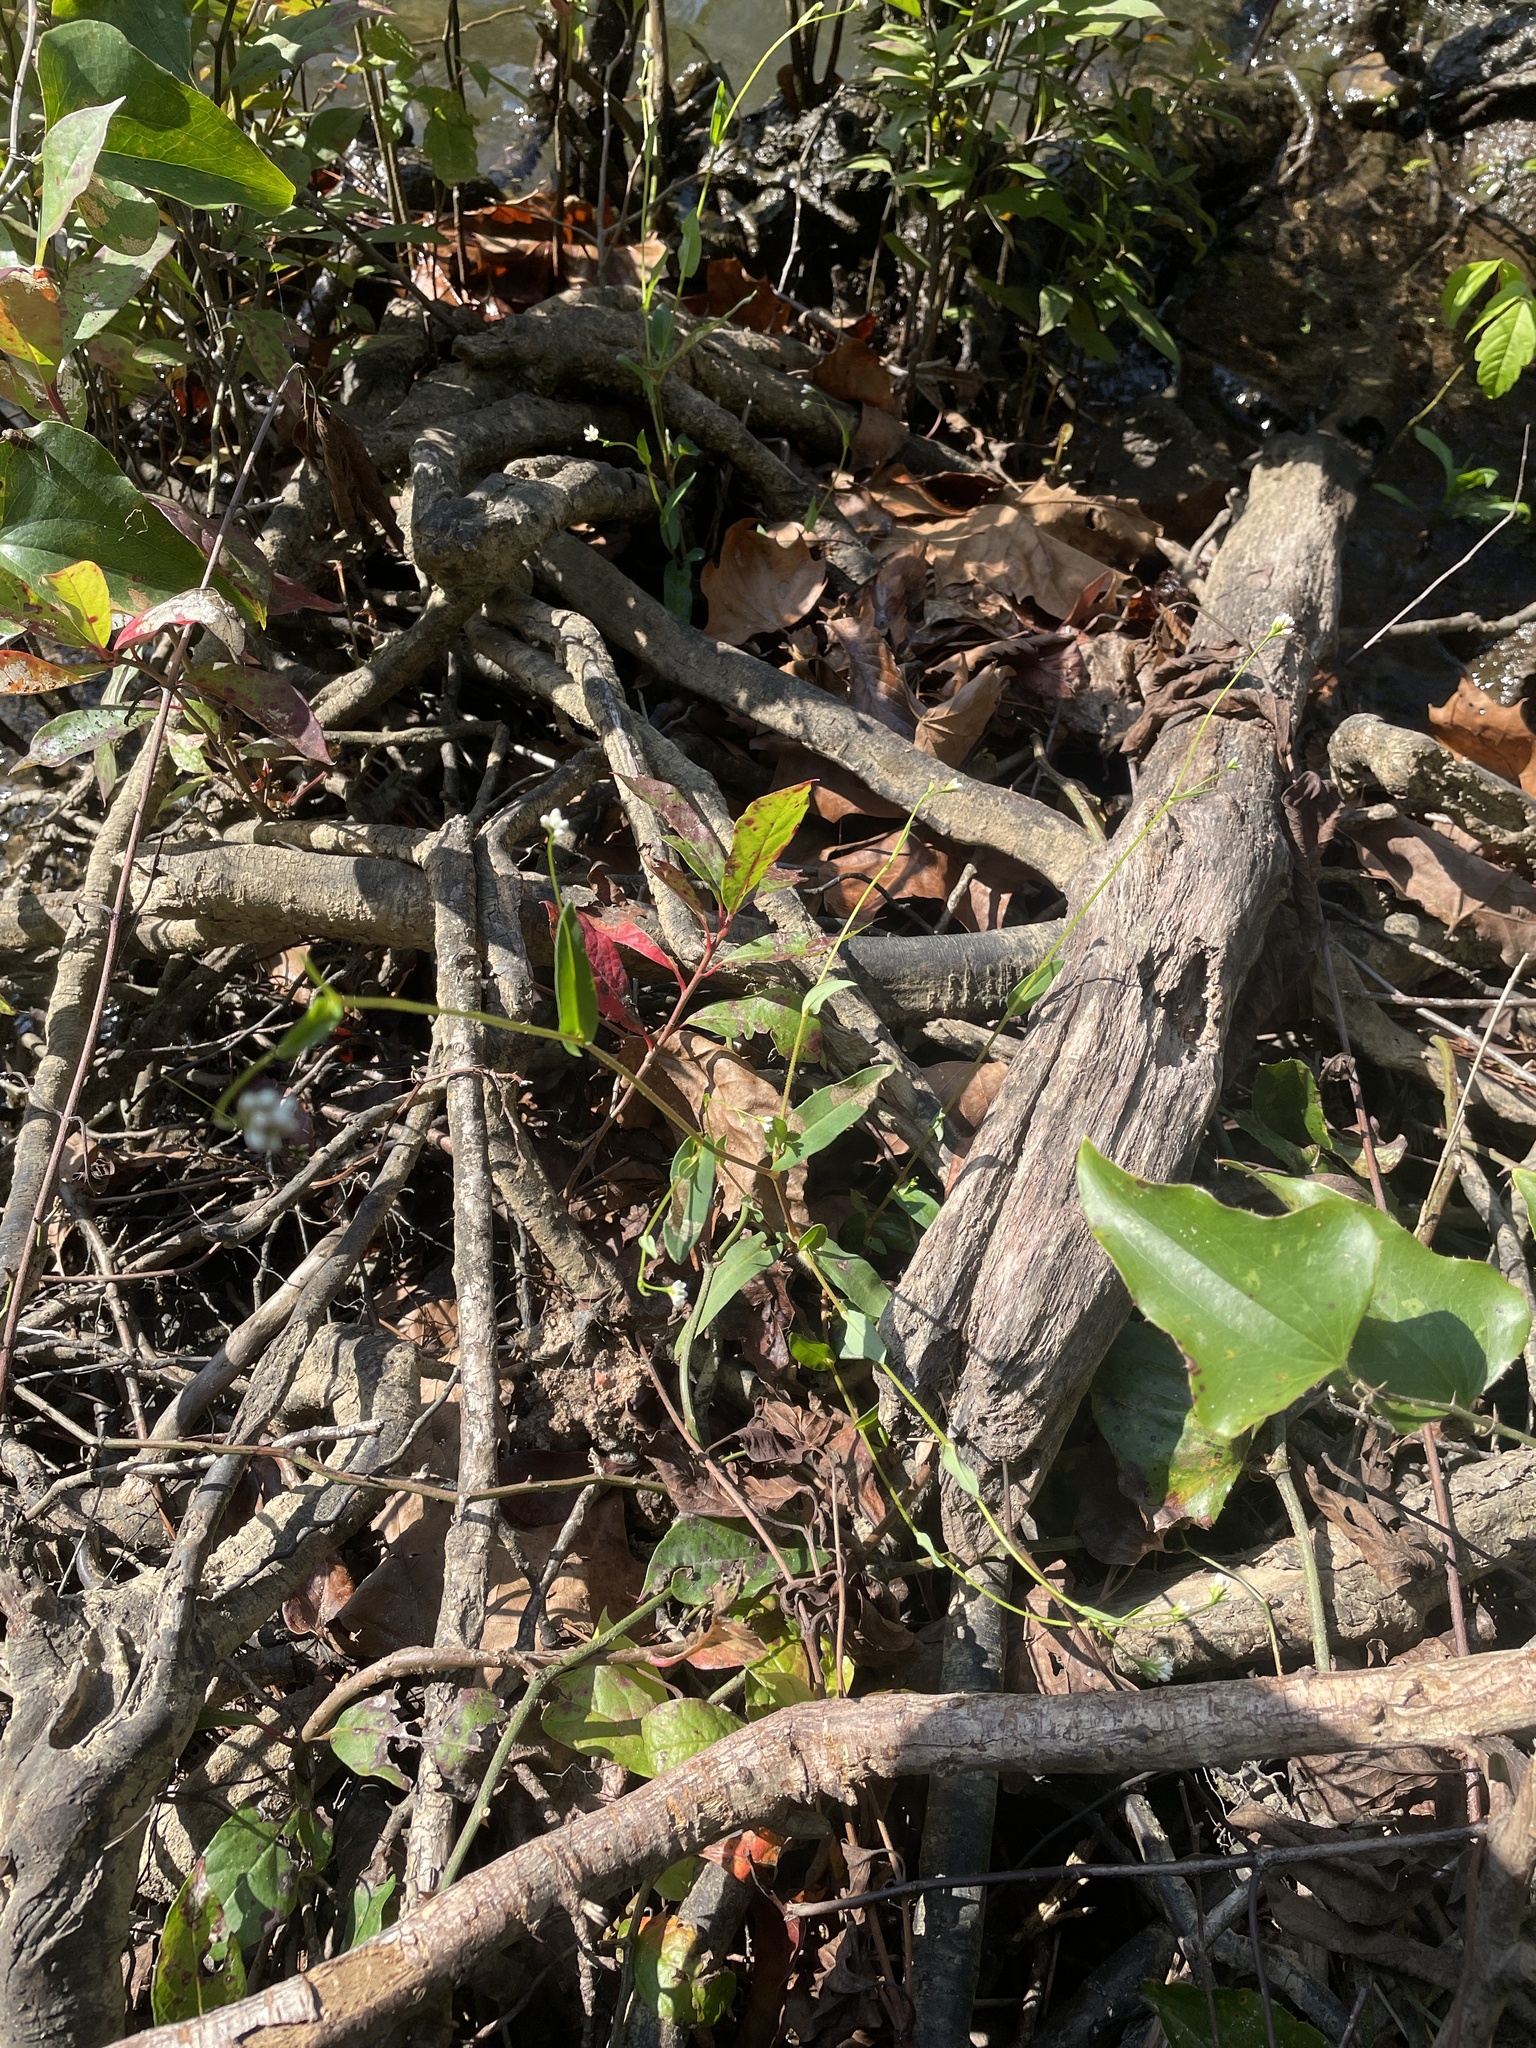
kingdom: Plantae
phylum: Tracheophyta
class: Magnoliopsida
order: Caryophyllales
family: Polygonaceae
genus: Persicaria
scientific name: Persicaria sagittata
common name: American tearthumb
